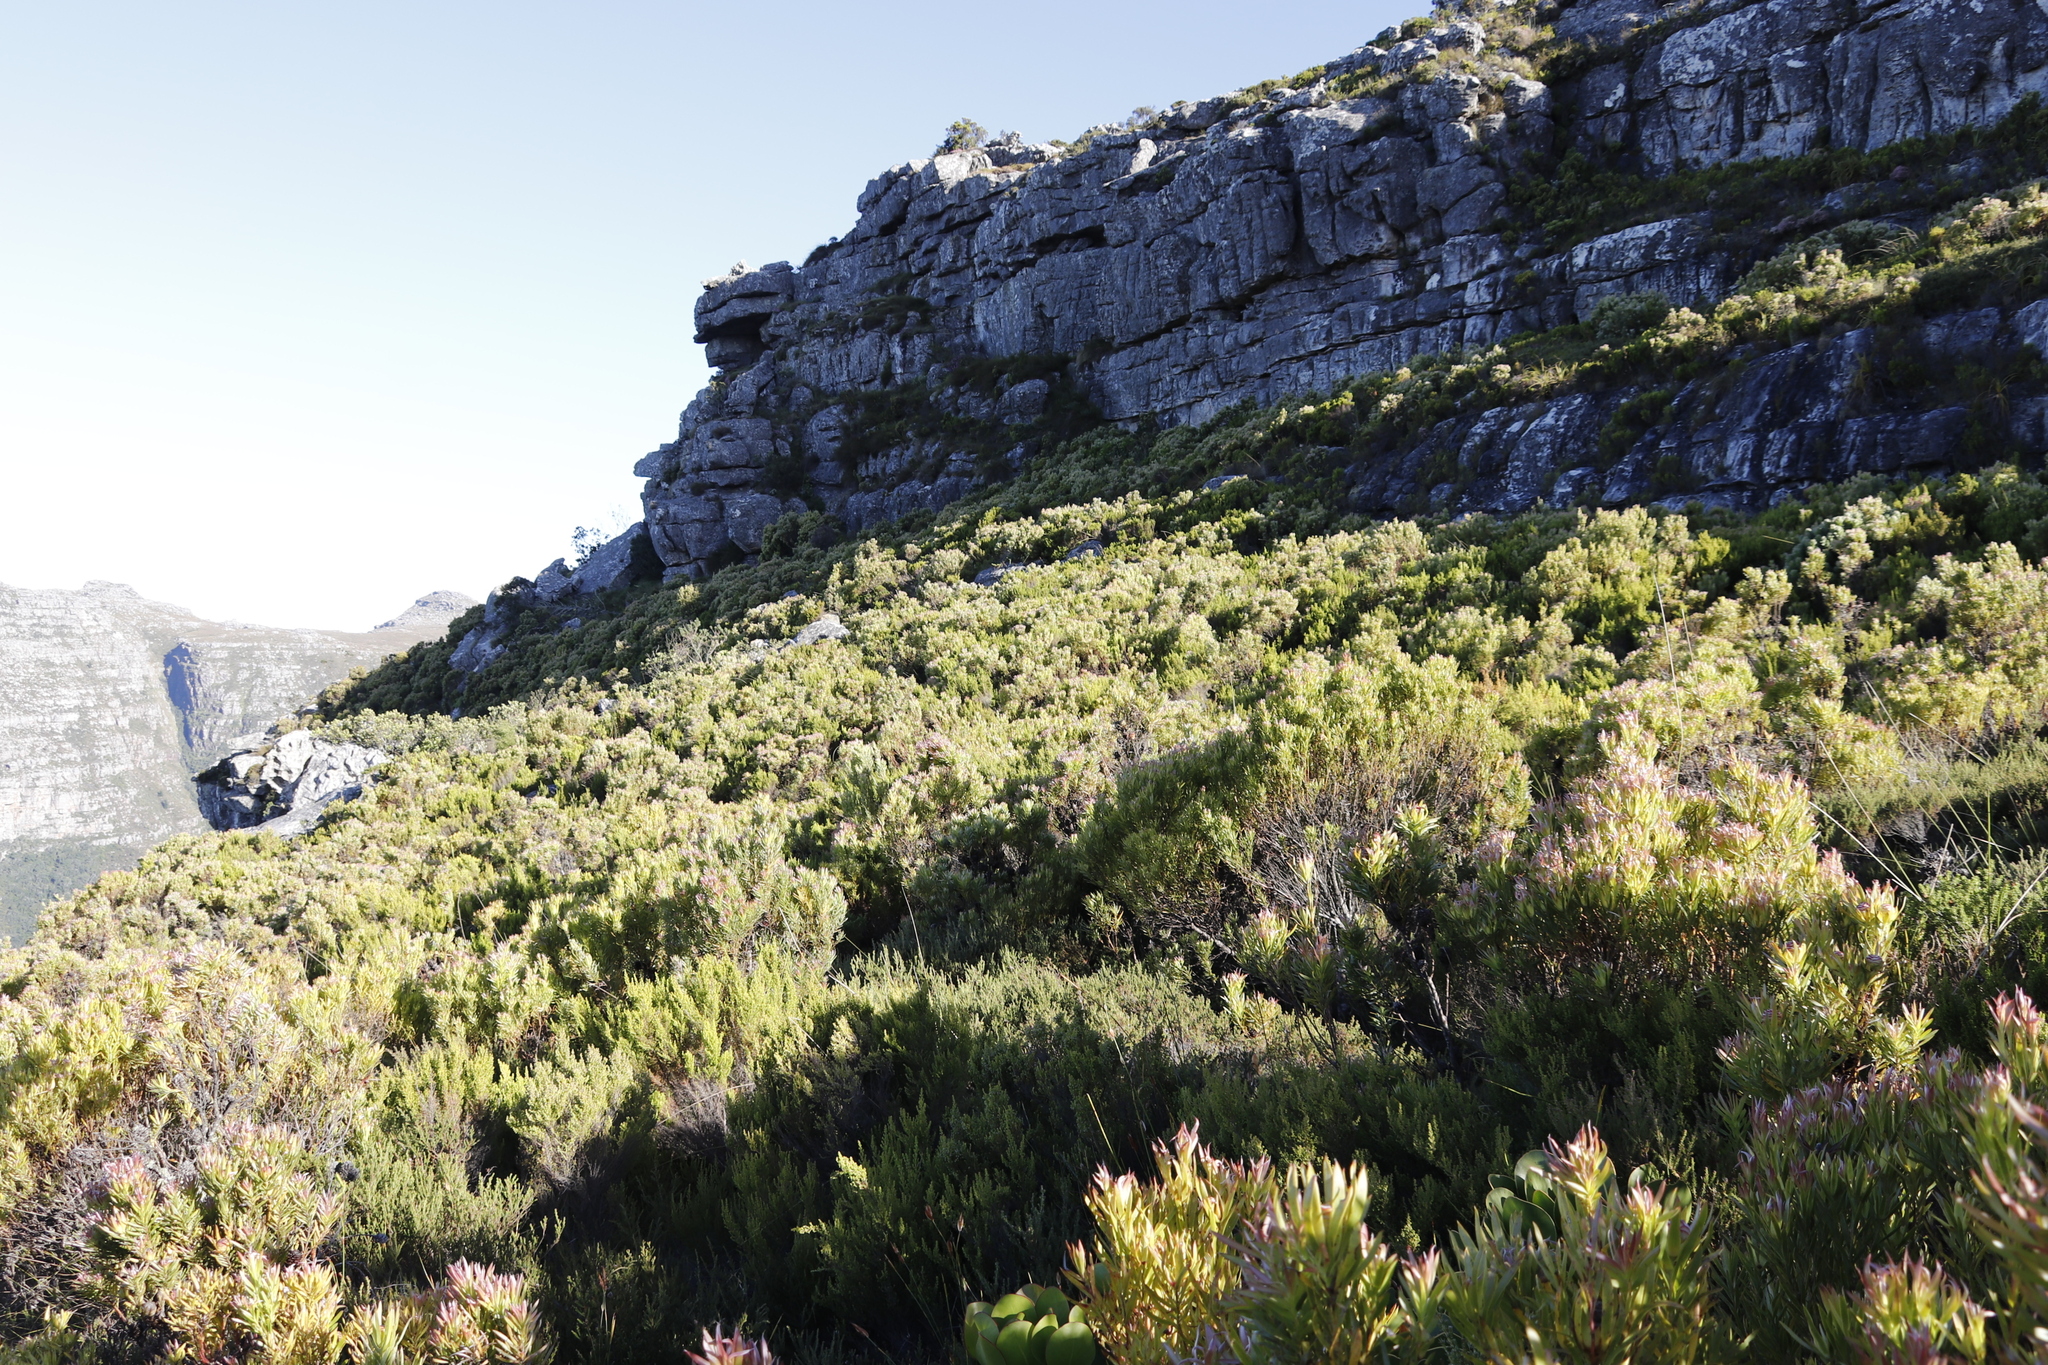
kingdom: Plantae
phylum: Tracheophyta
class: Magnoliopsida
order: Proteales
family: Proteaceae
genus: Leucadendron
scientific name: Leucadendron xanthoconus
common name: Sickle-leaf conebush
